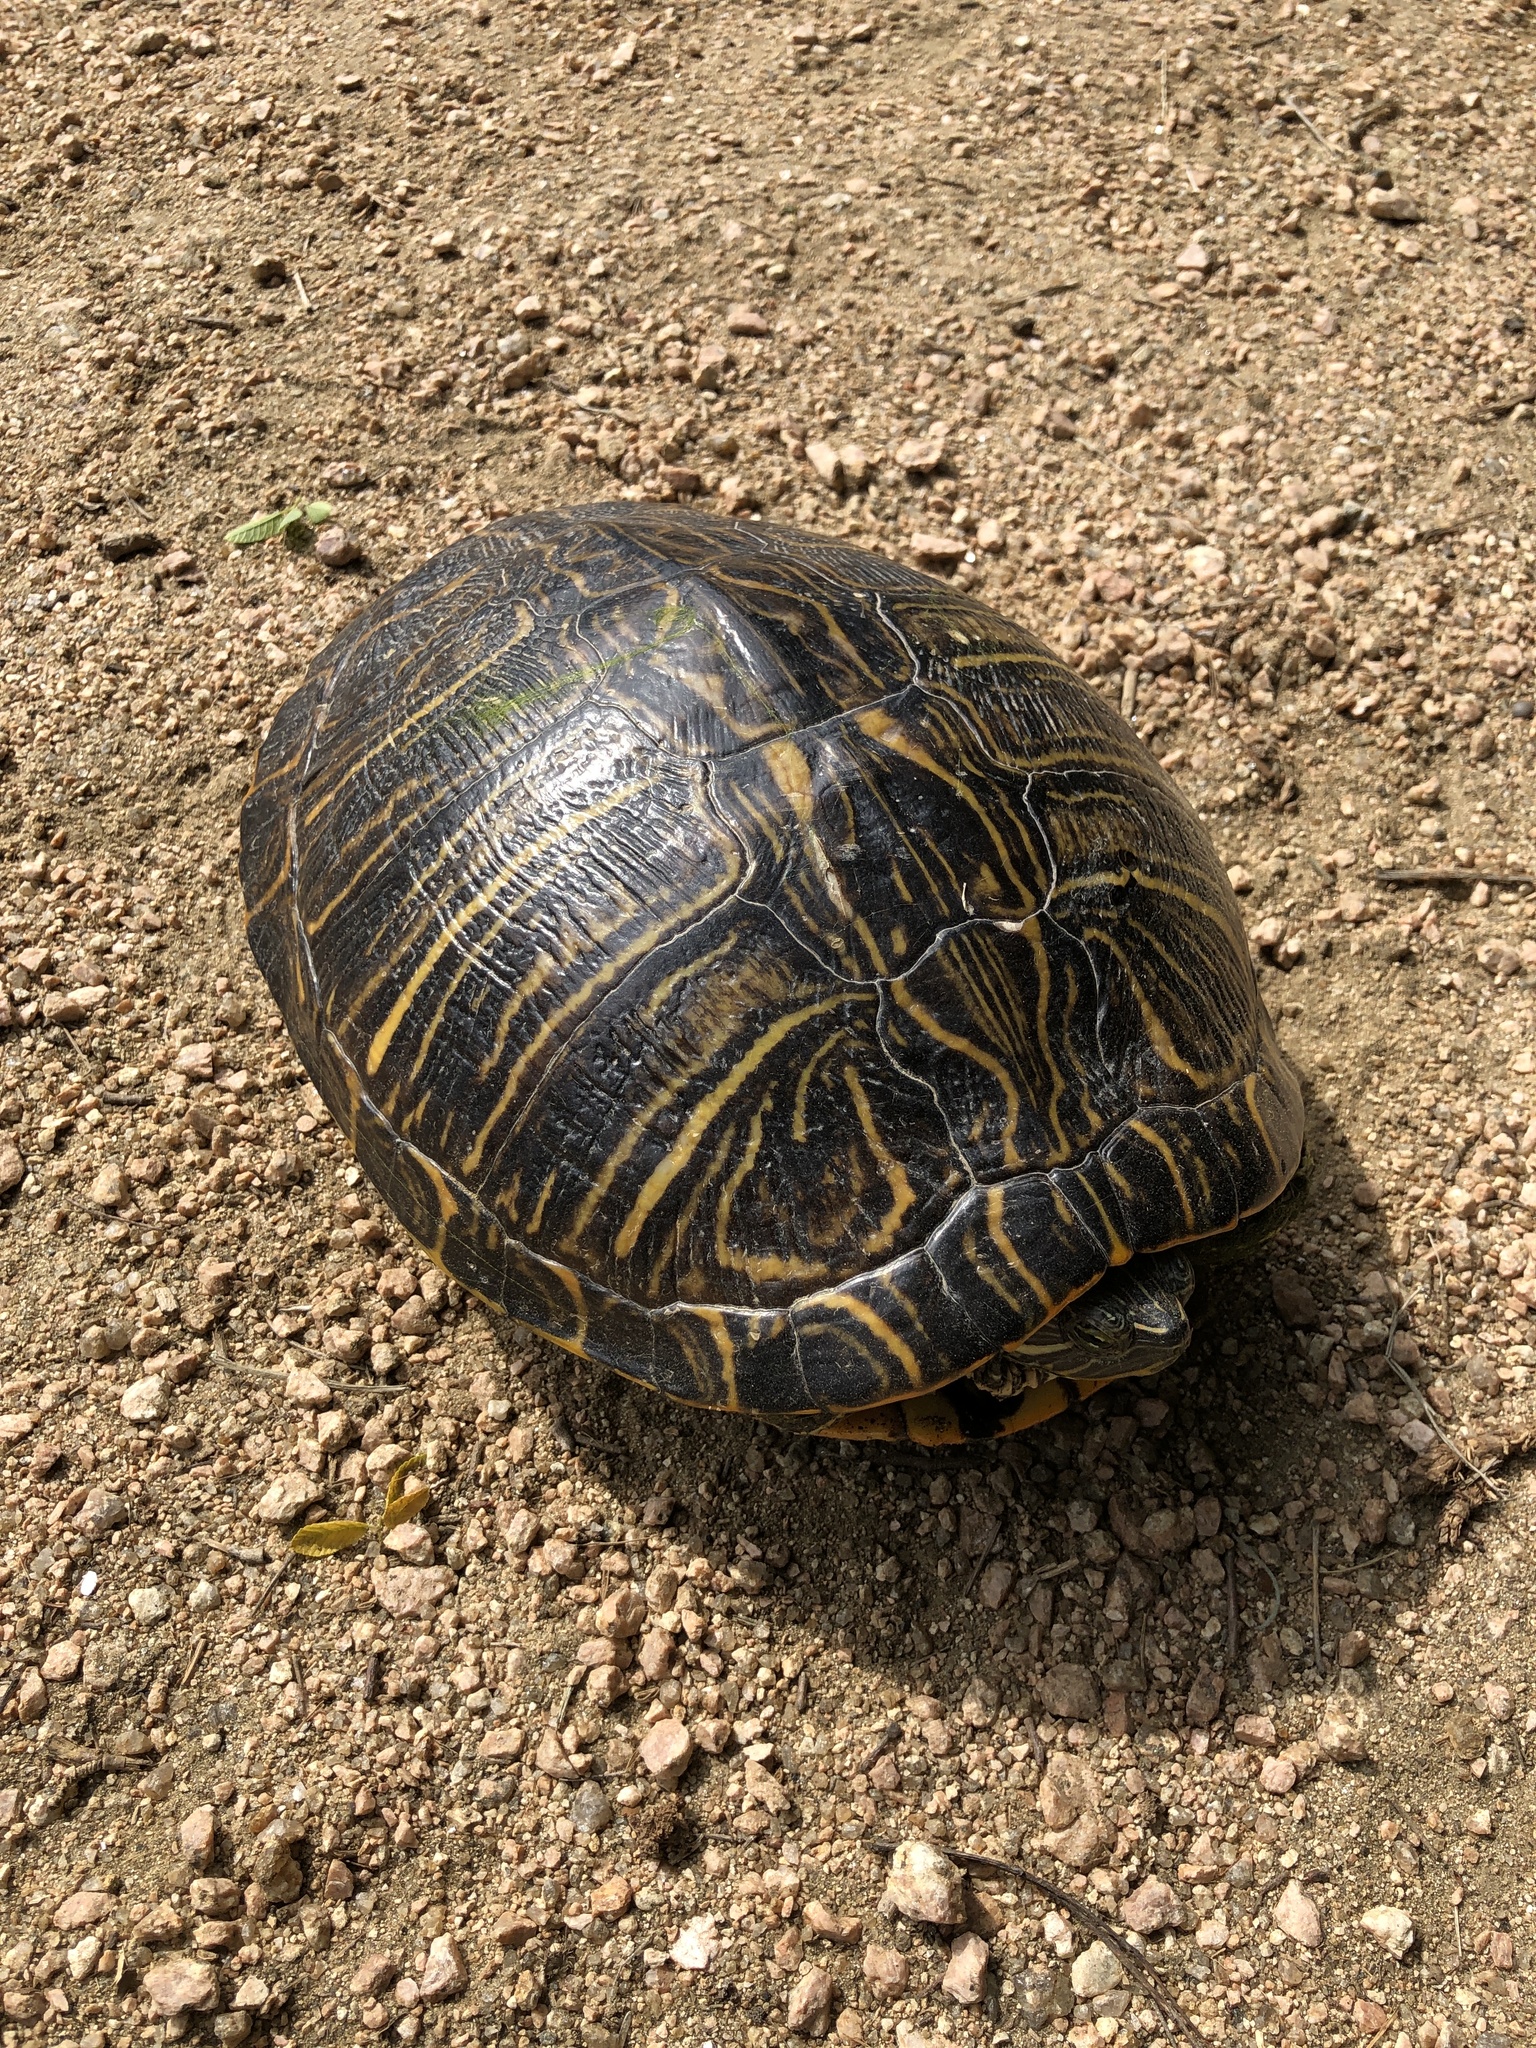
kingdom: Animalia
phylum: Chordata
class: Testudines
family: Emydidae
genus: Trachemys
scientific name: Trachemys scripta
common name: Slider
